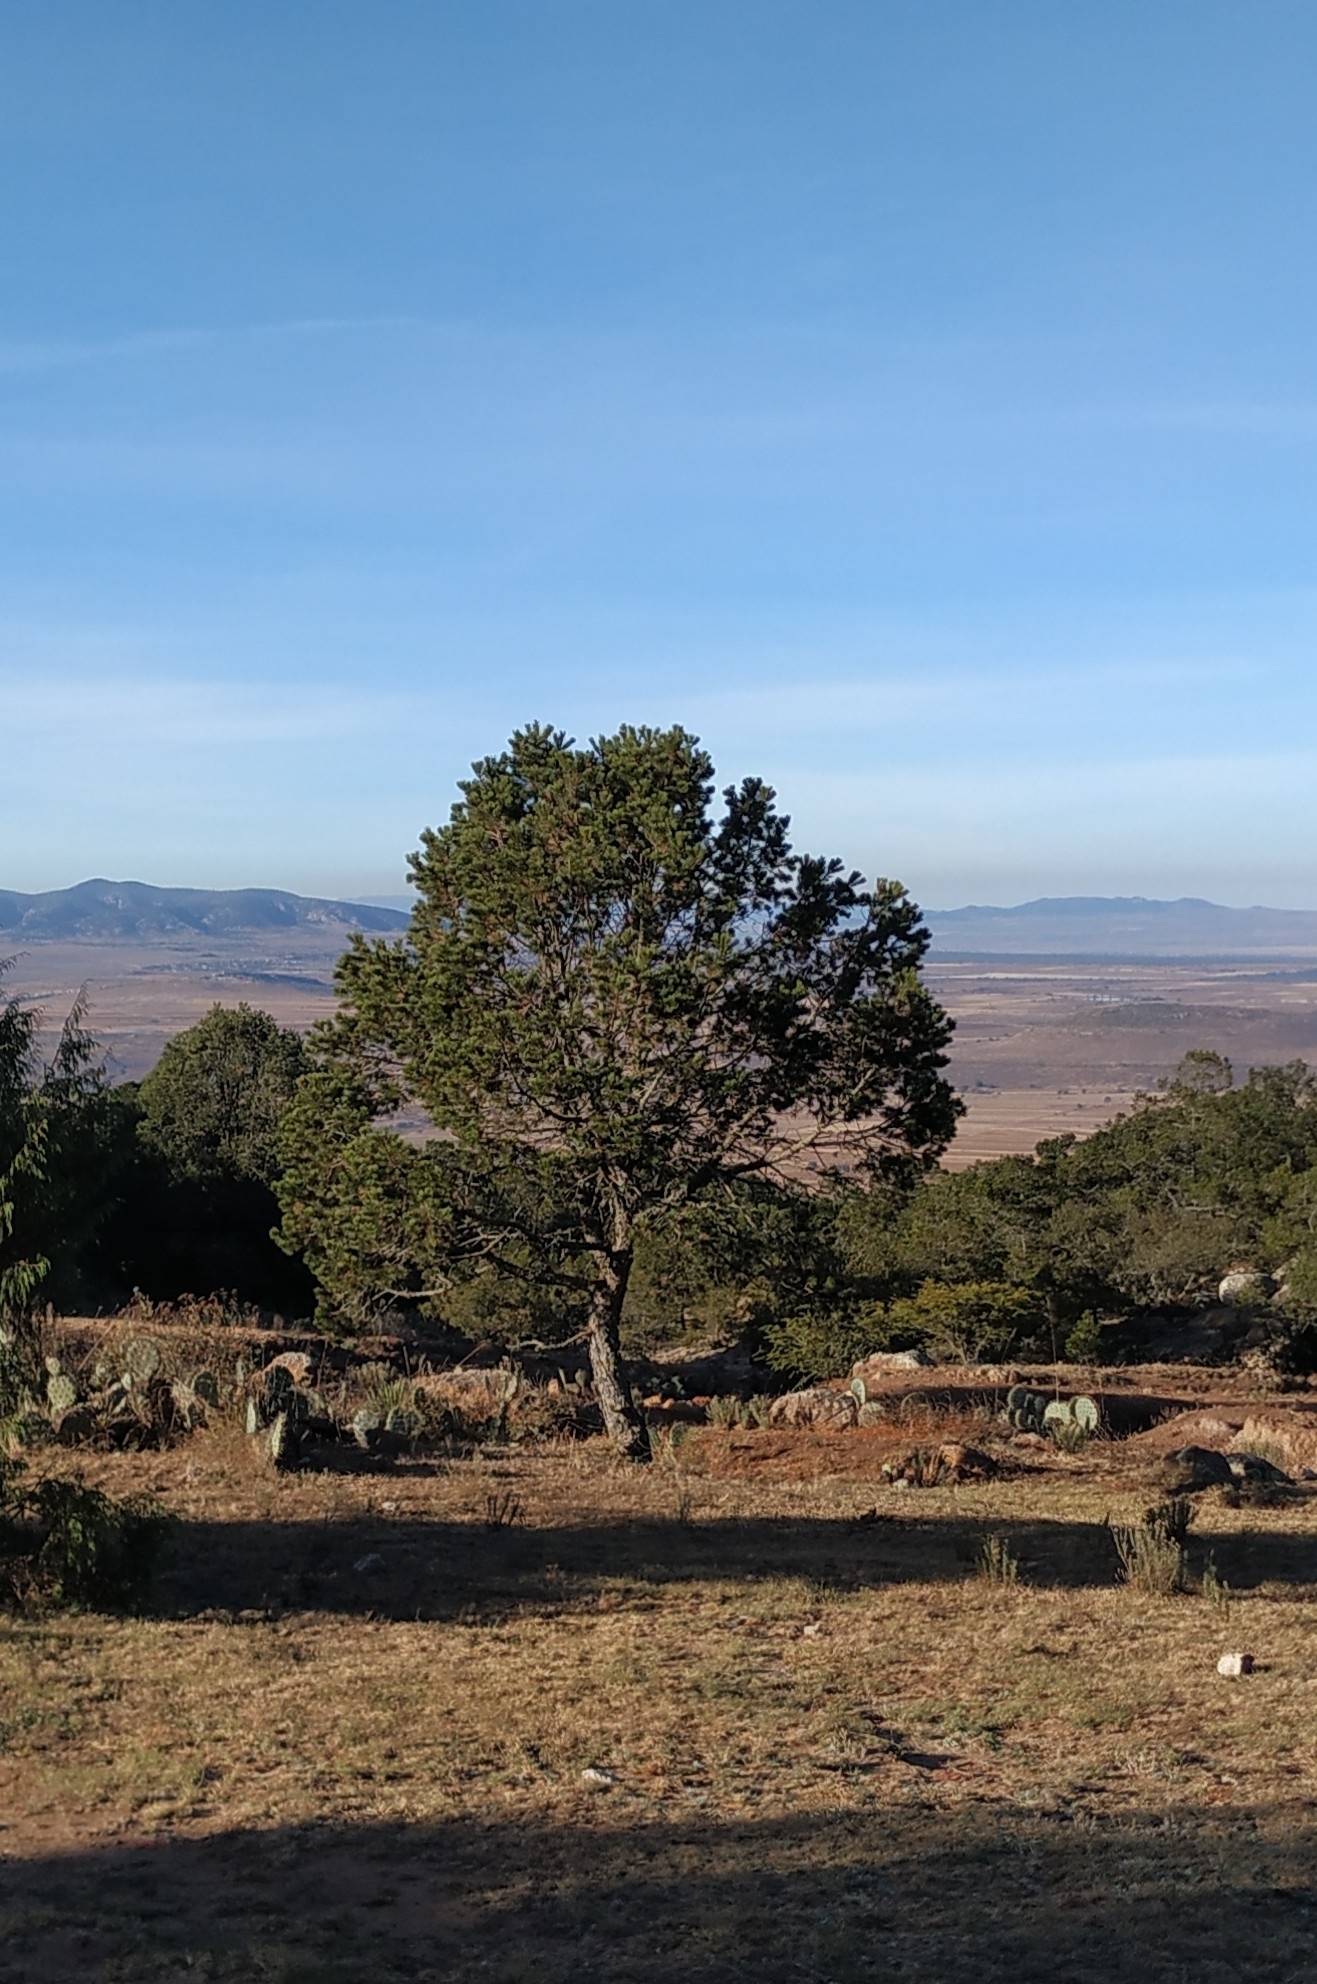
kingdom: Plantae
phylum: Tracheophyta
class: Pinopsida
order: Pinales
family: Pinaceae
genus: Pinus
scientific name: Pinus cembroides
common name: Mexican nut pine
